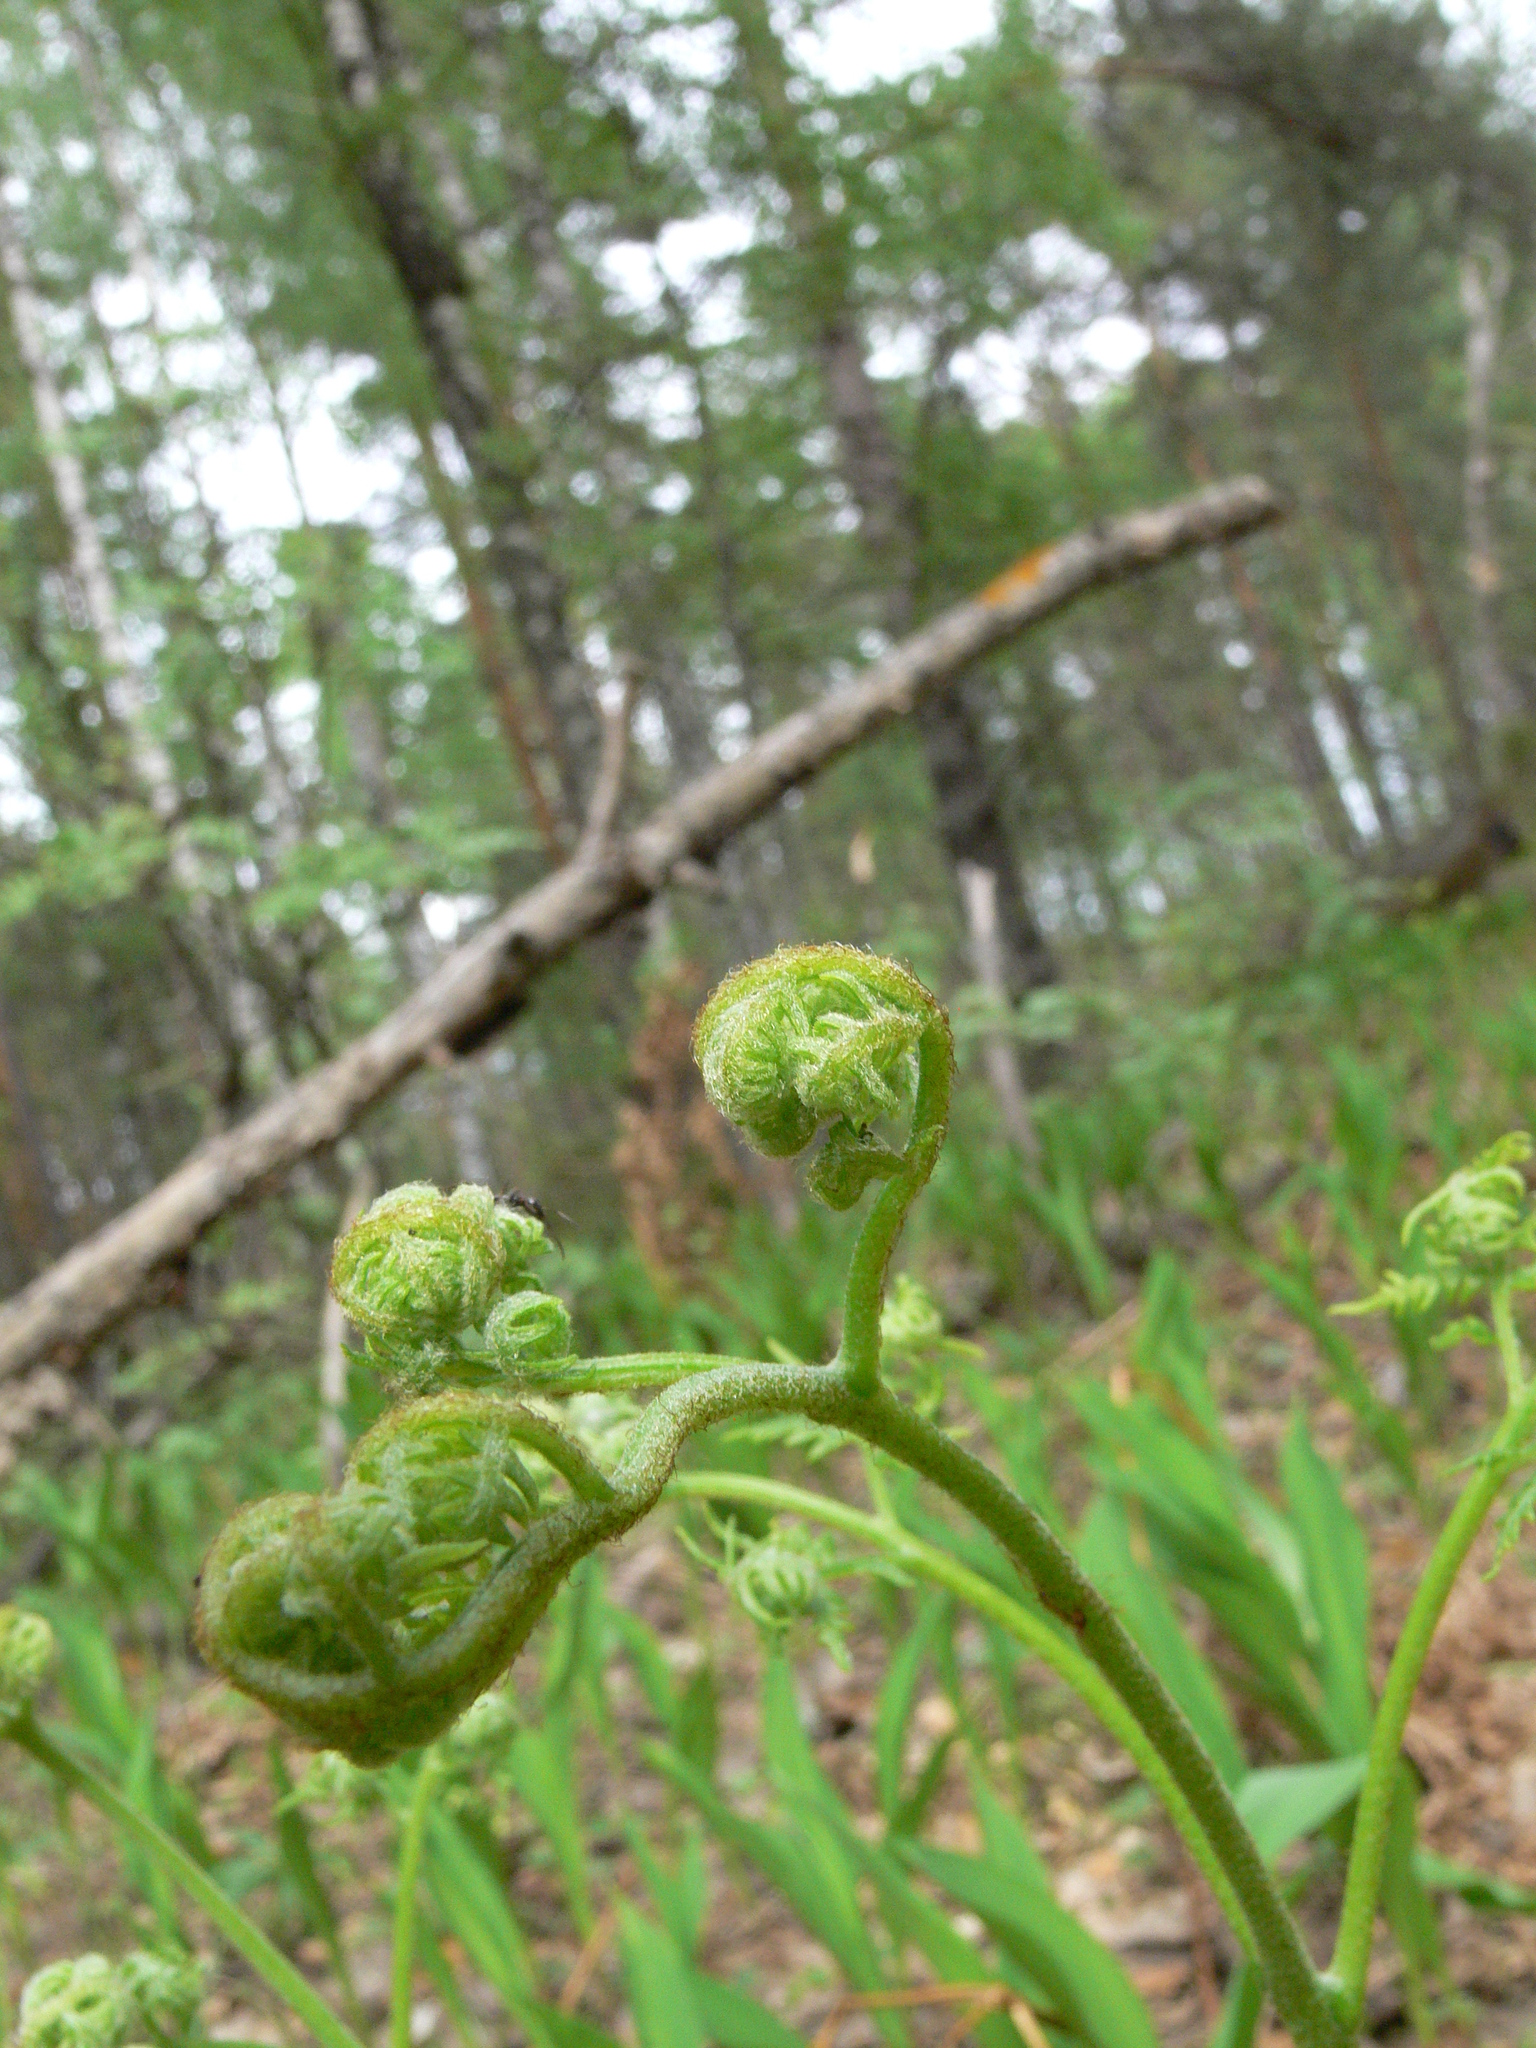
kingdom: Plantae
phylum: Tracheophyta
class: Polypodiopsida
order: Polypodiales
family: Dennstaedtiaceae
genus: Pteridium
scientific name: Pteridium aquilinum
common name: Bracken
